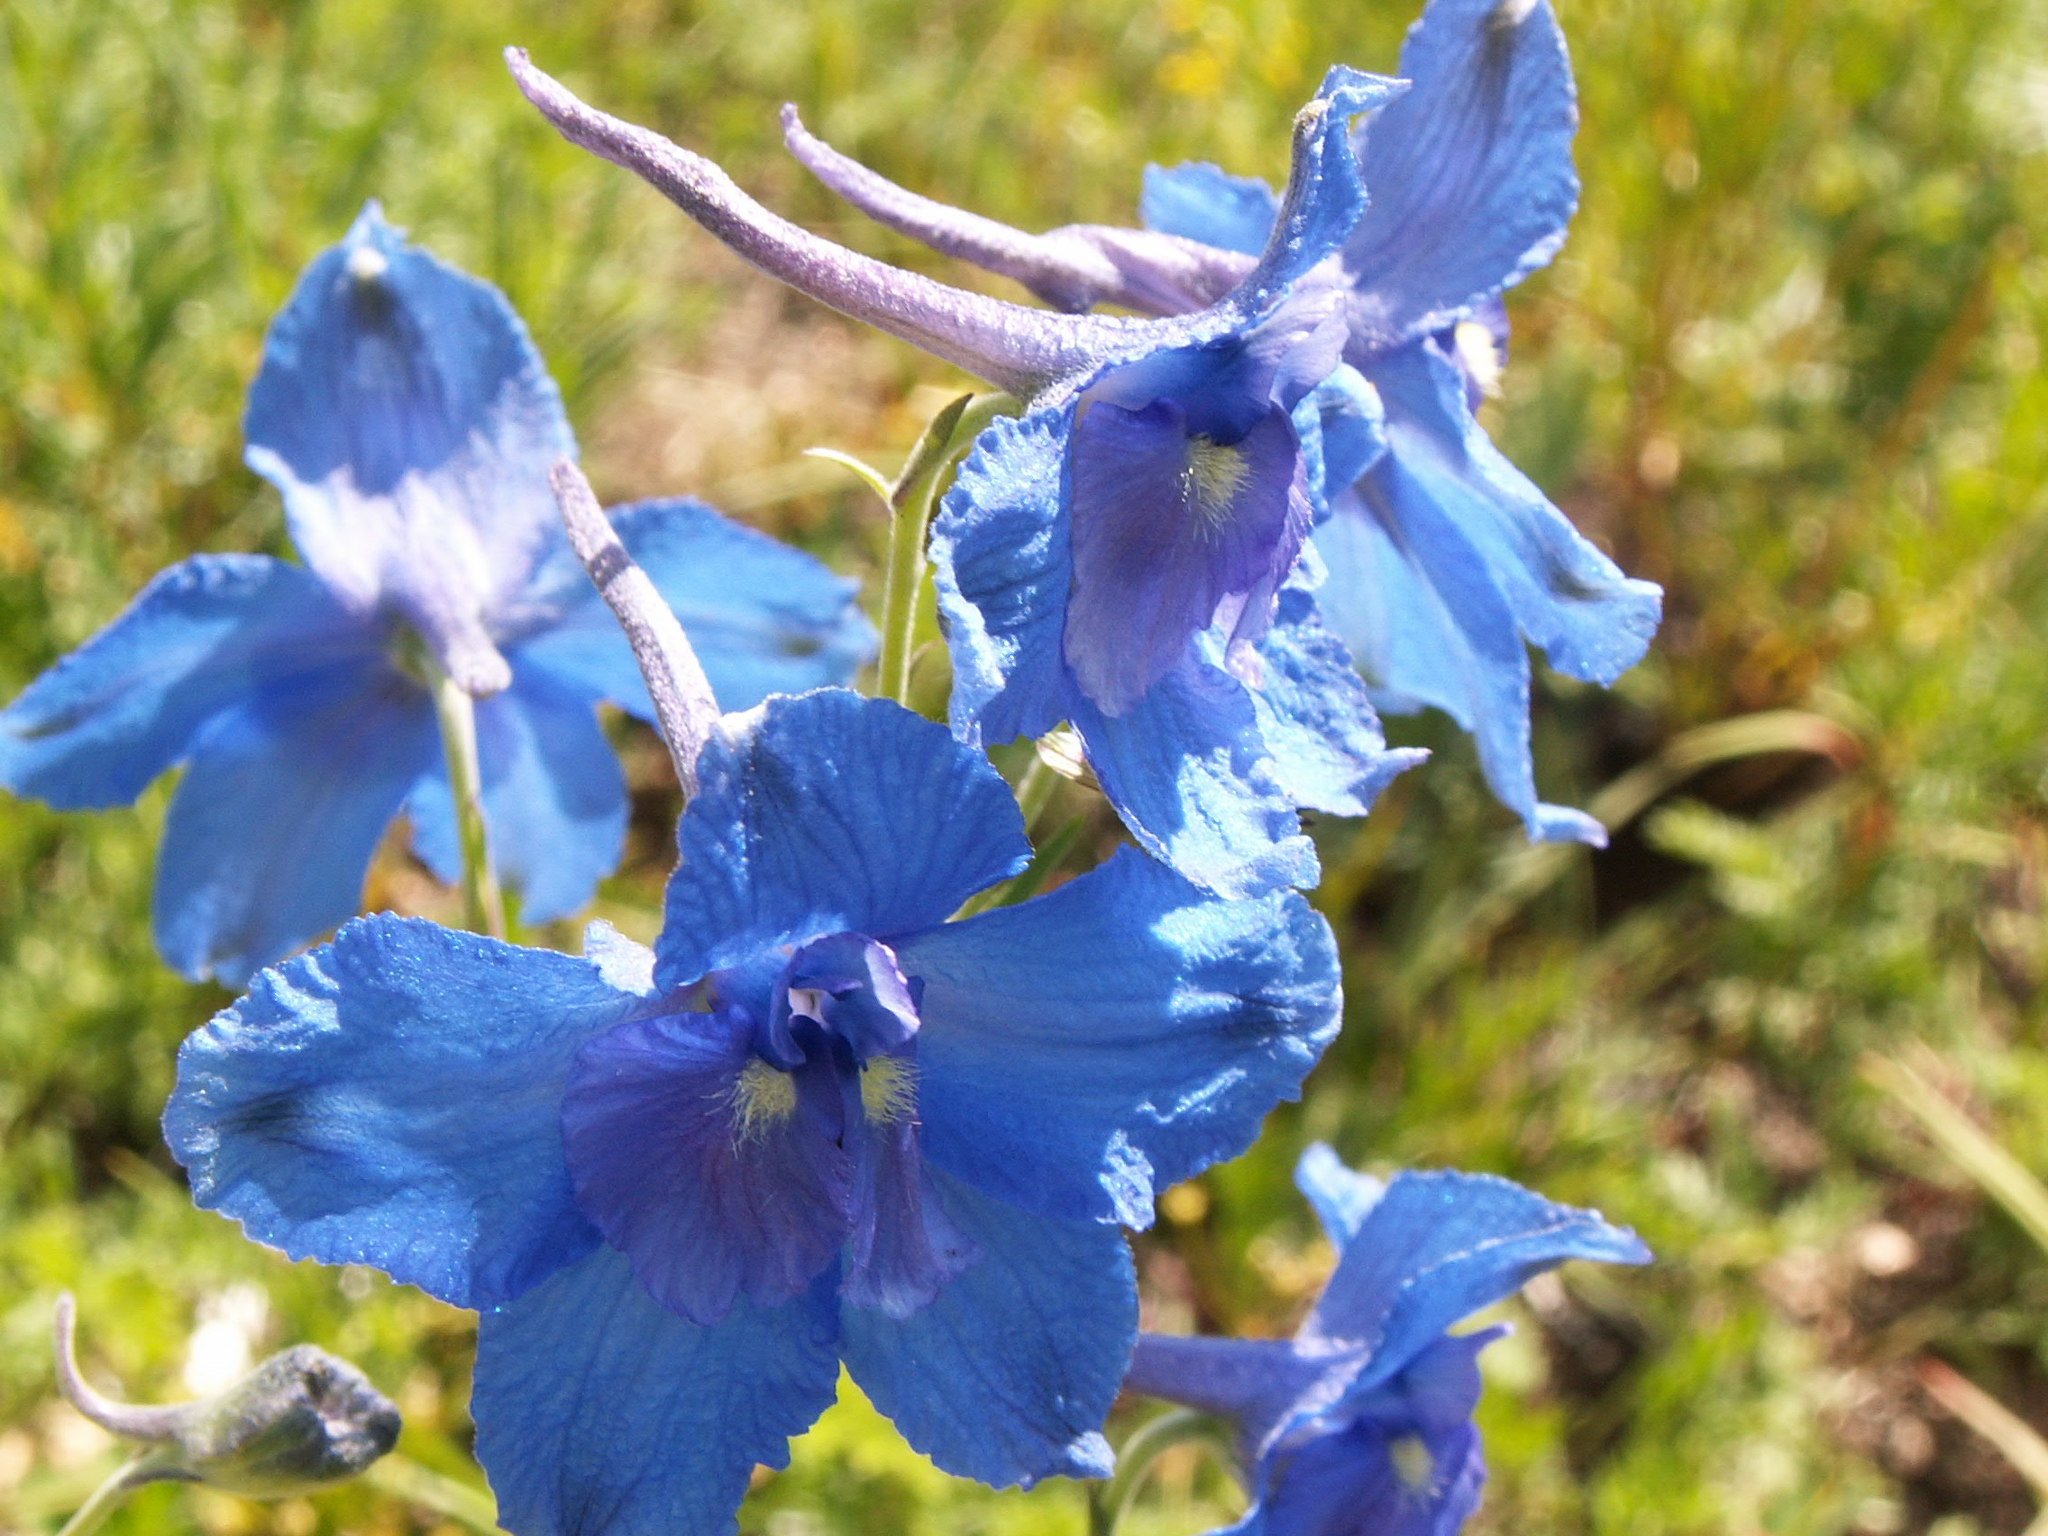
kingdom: Plantae
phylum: Tracheophyta
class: Magnoliopsida
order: Ranunculales
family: Ranunculaceae
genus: Delphinium
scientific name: Delphinium grandiflorum
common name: Siberian larkspur
